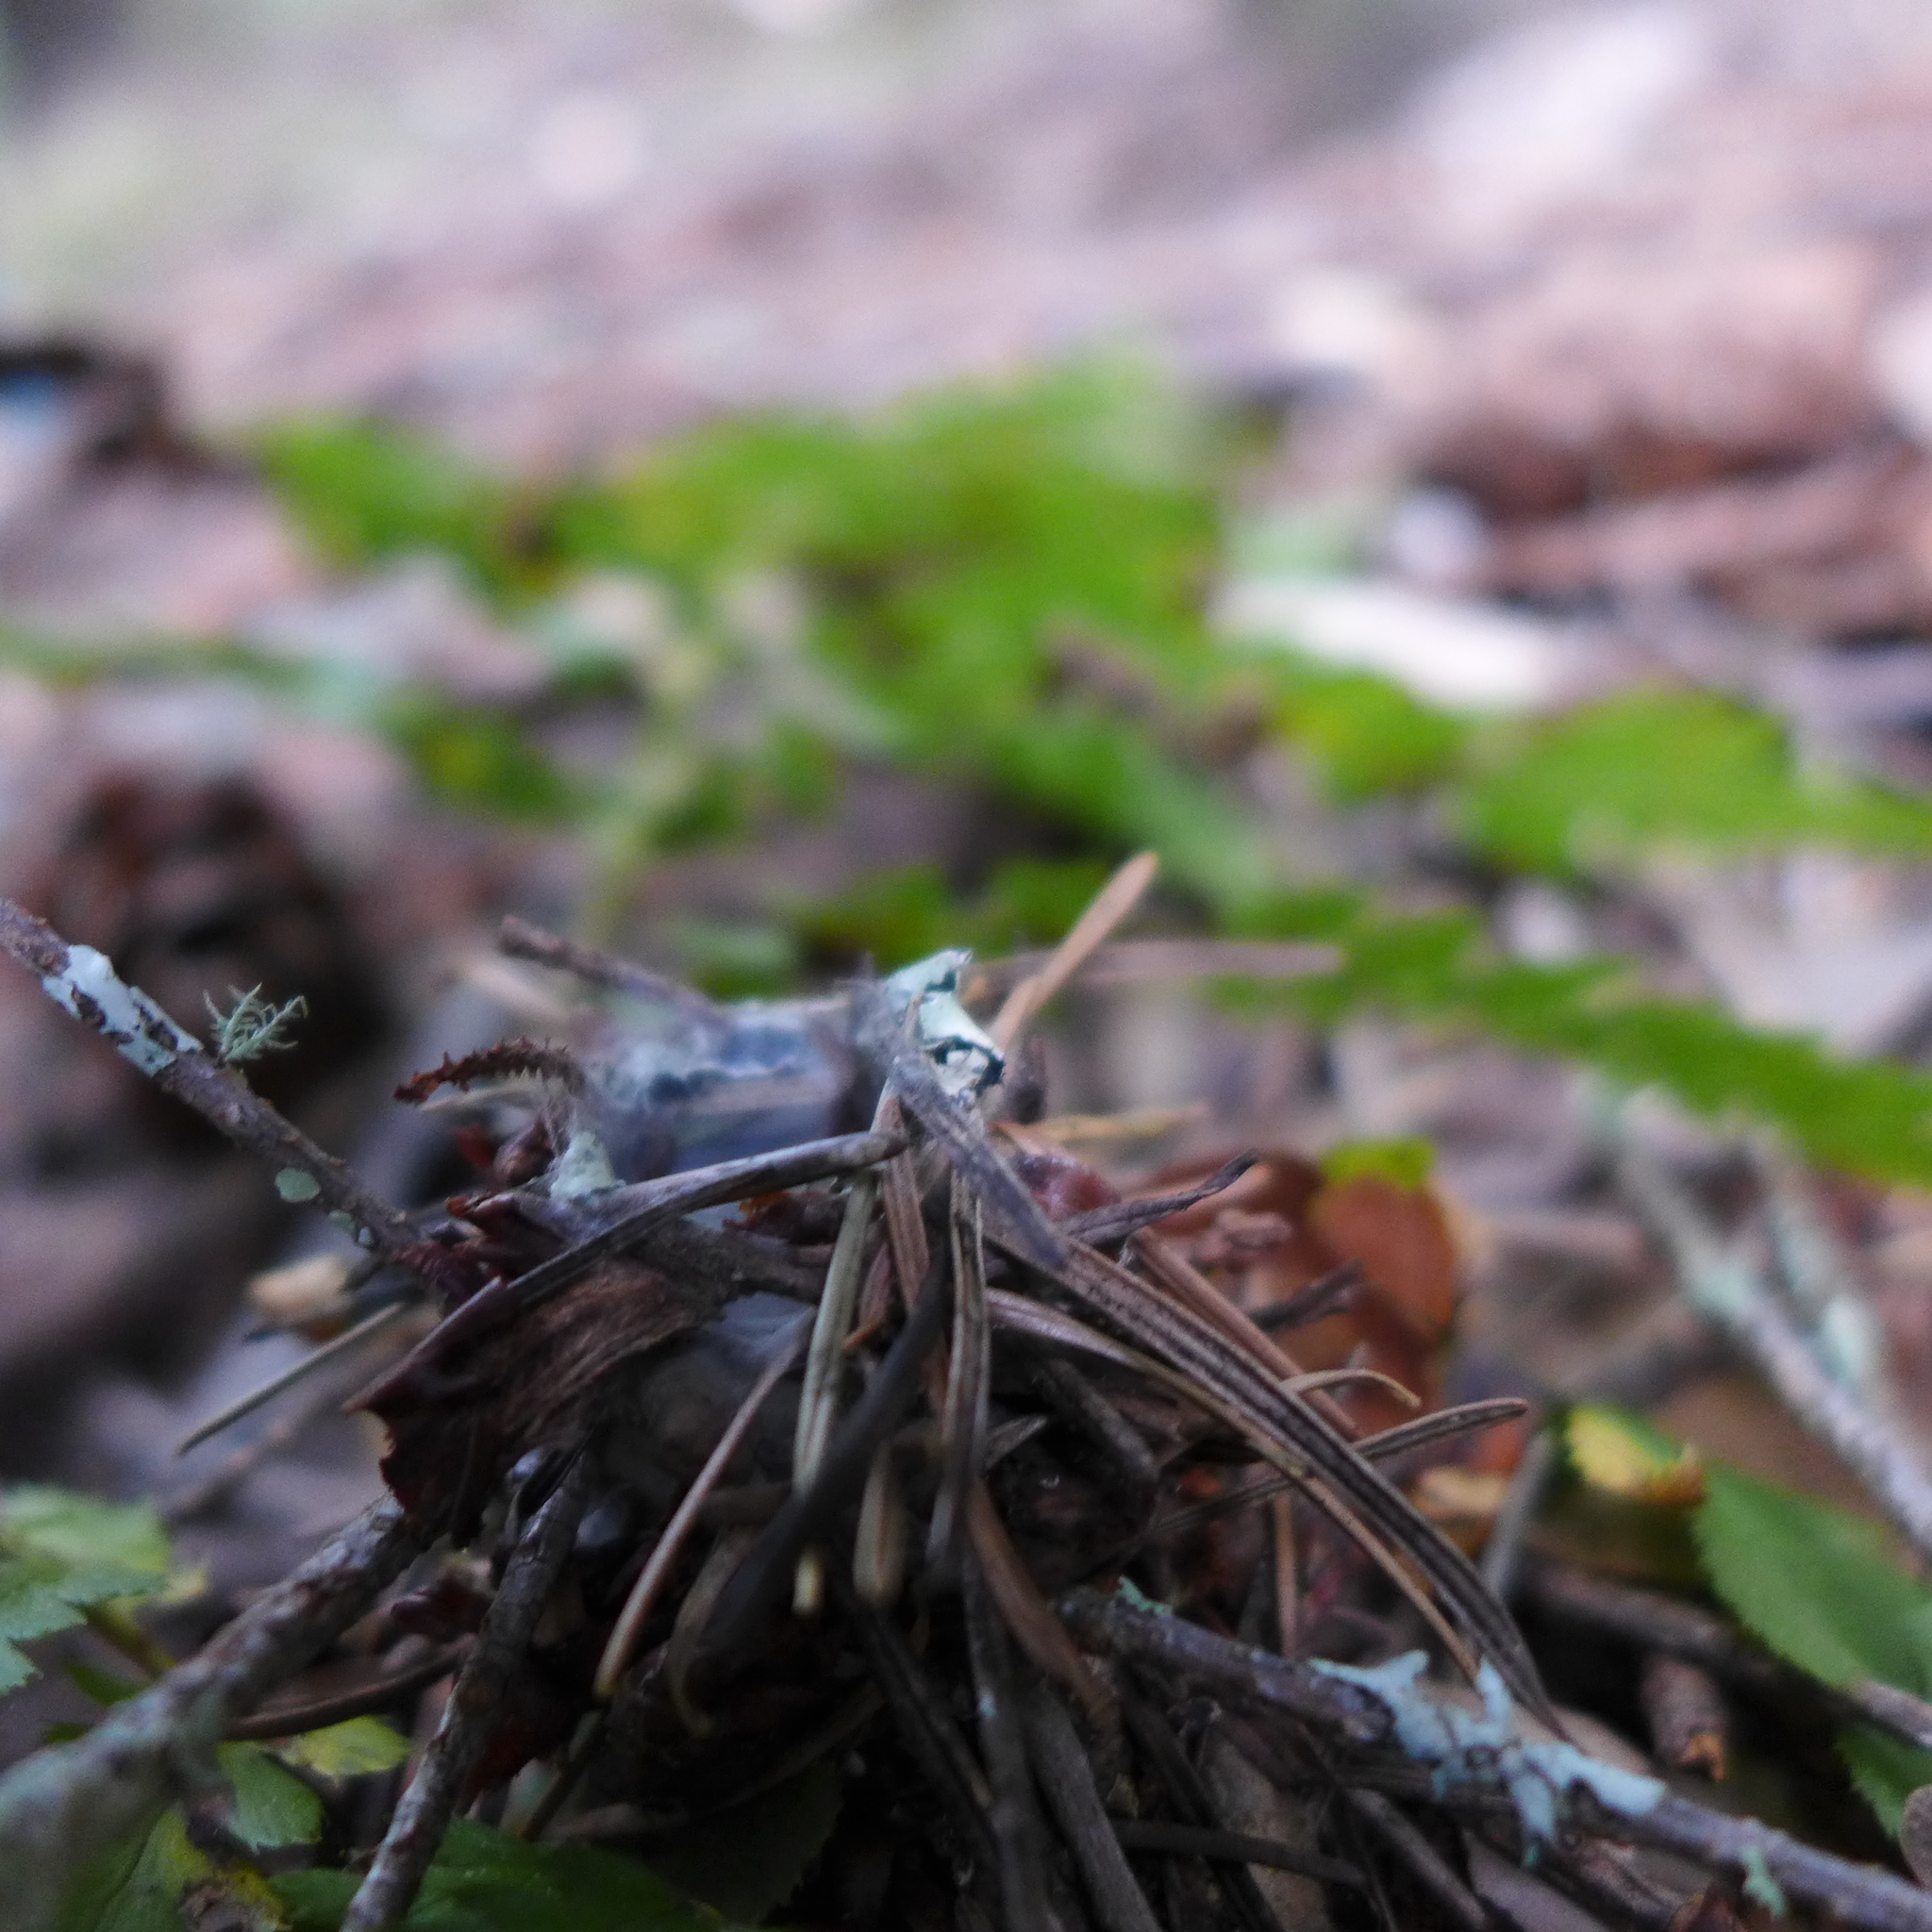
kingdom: Animalia
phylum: Arthropoda
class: Arachnida
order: Araneae
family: Antrodiaetidae
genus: Atypoides
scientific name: Atypoides riversi
